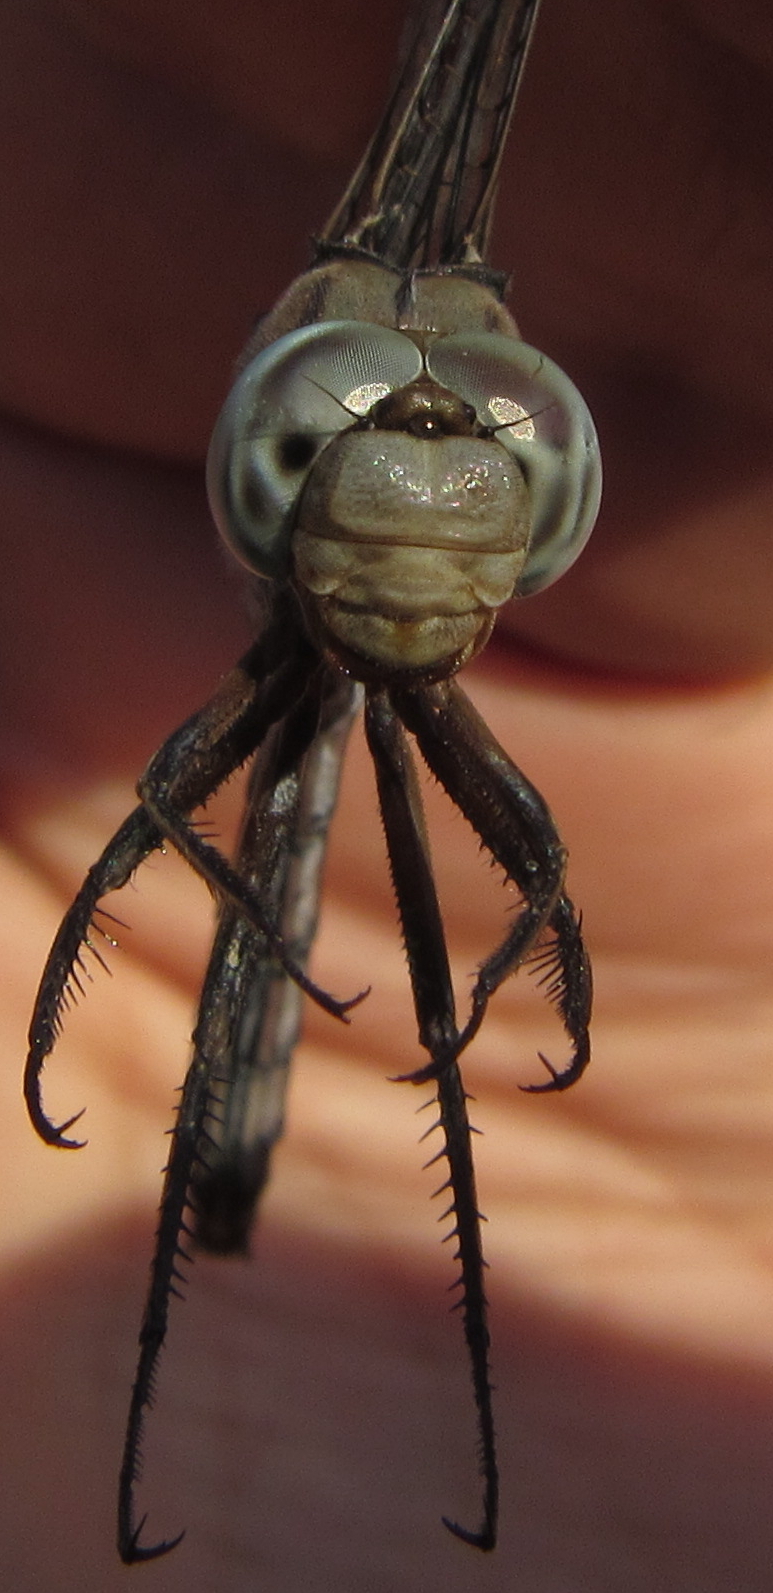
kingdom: Animalia
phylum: Arthropoda
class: Insecta
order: Odonata
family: Libellulidae
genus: Orthetrum
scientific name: Orthetrum robustum
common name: Robust skimmer
